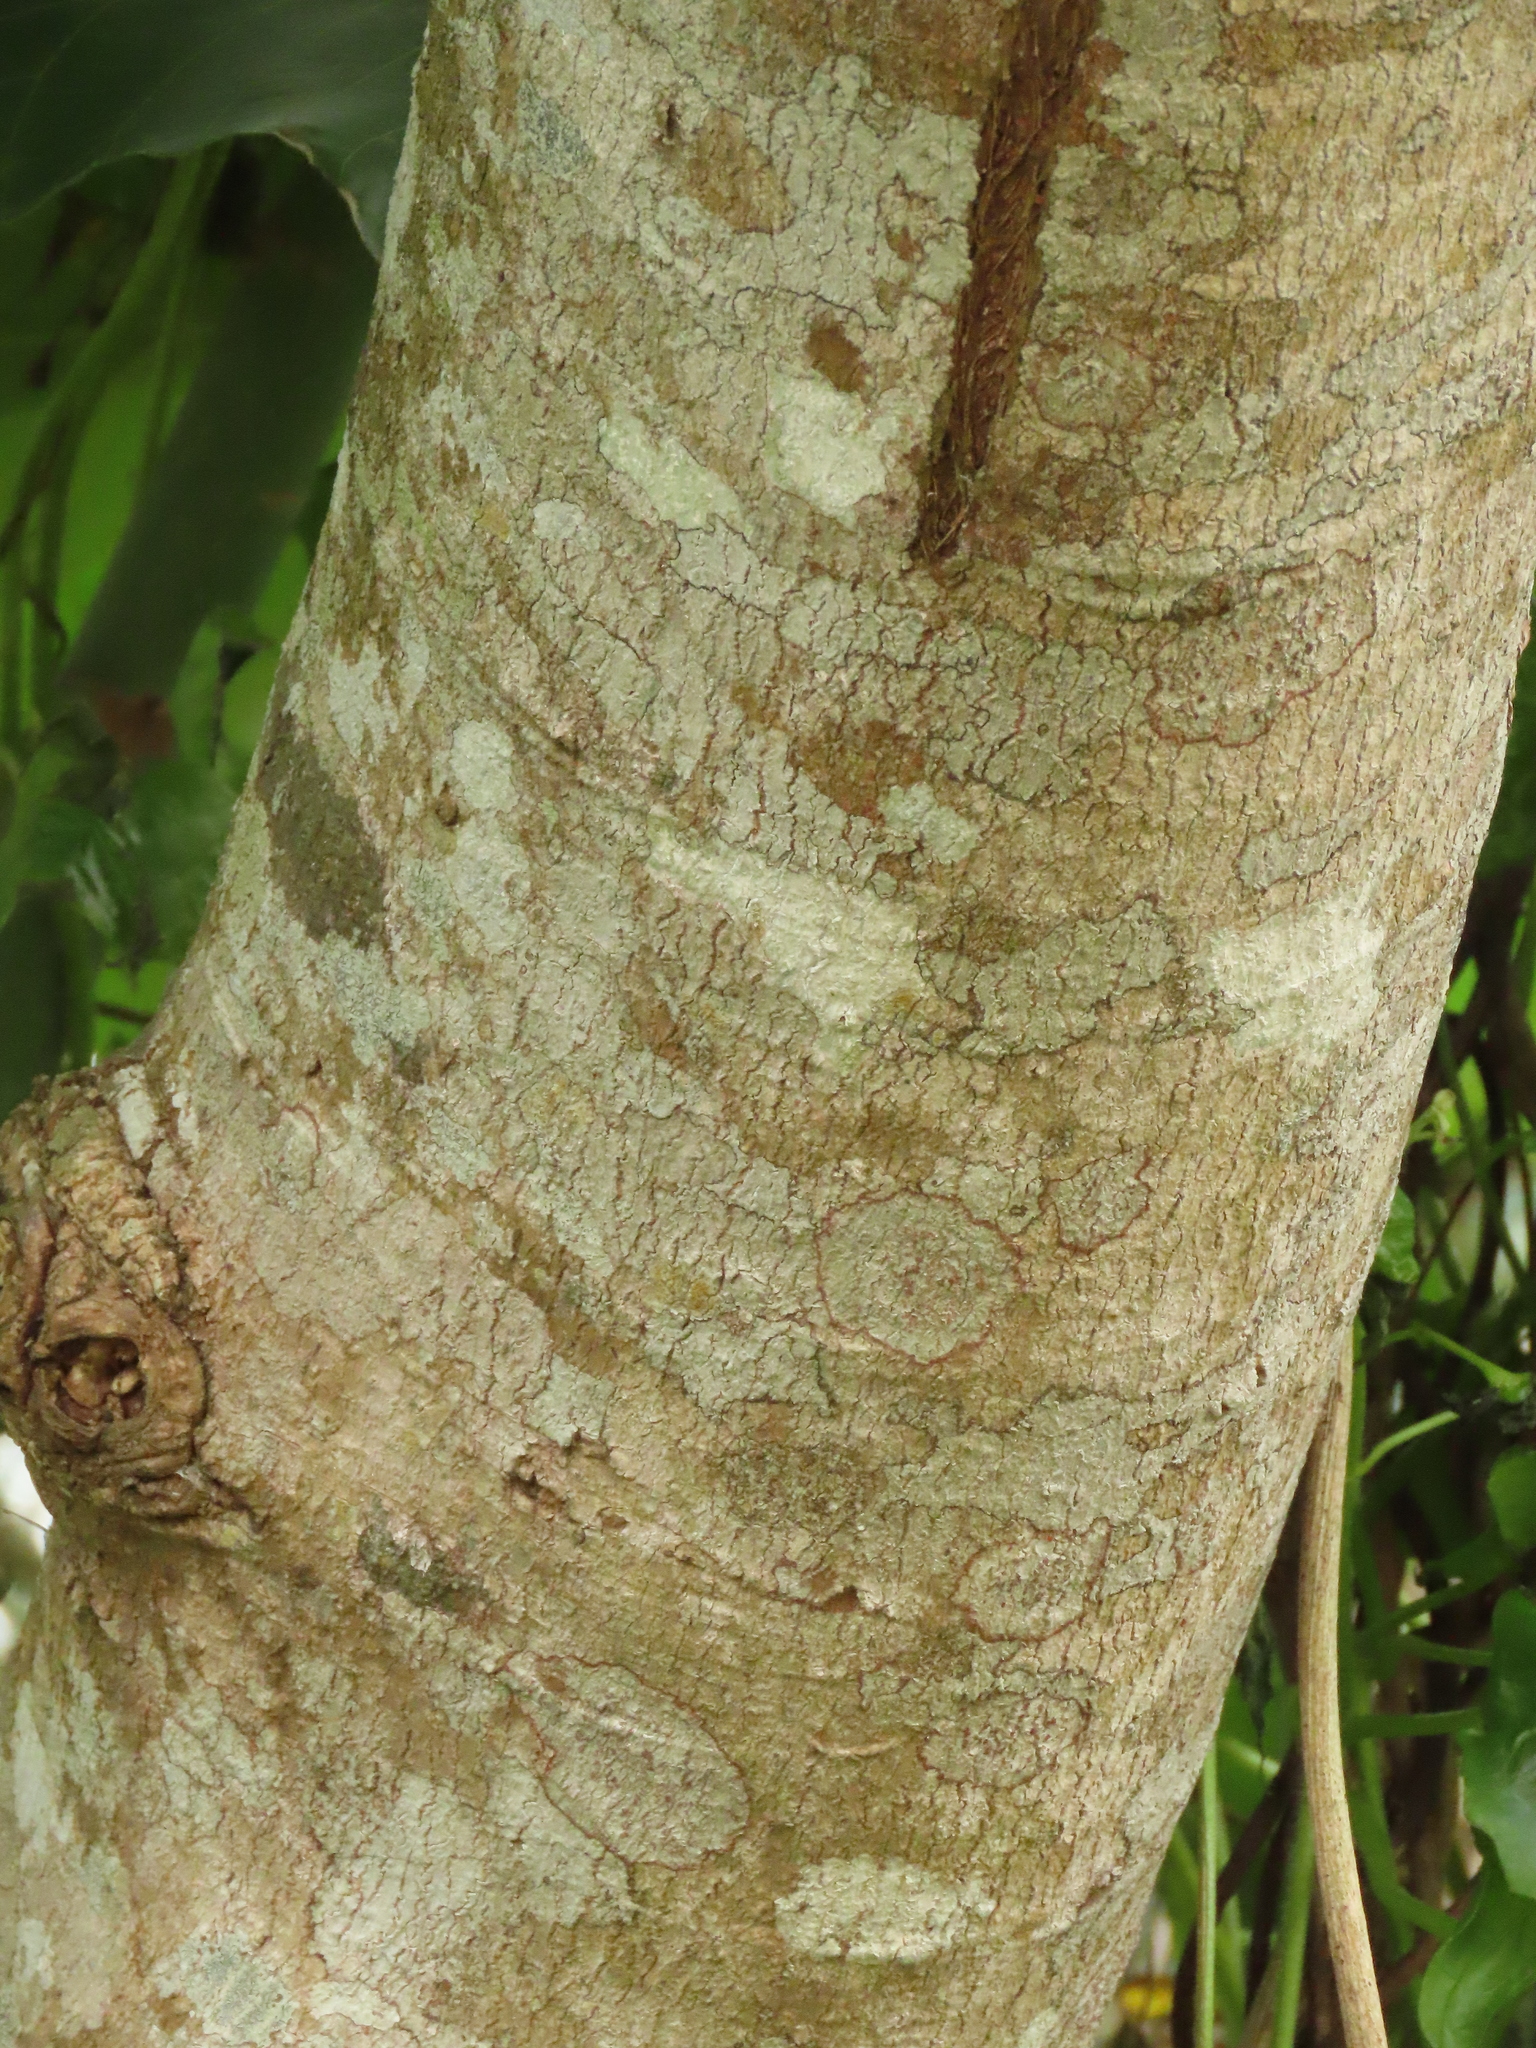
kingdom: Plantae
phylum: Tracheophyta
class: Magnoliopsida
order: Malpighiales
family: Euphorbiaceae
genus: Macaranga
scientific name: Macaranga tanarius
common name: Parasol leaf tree
